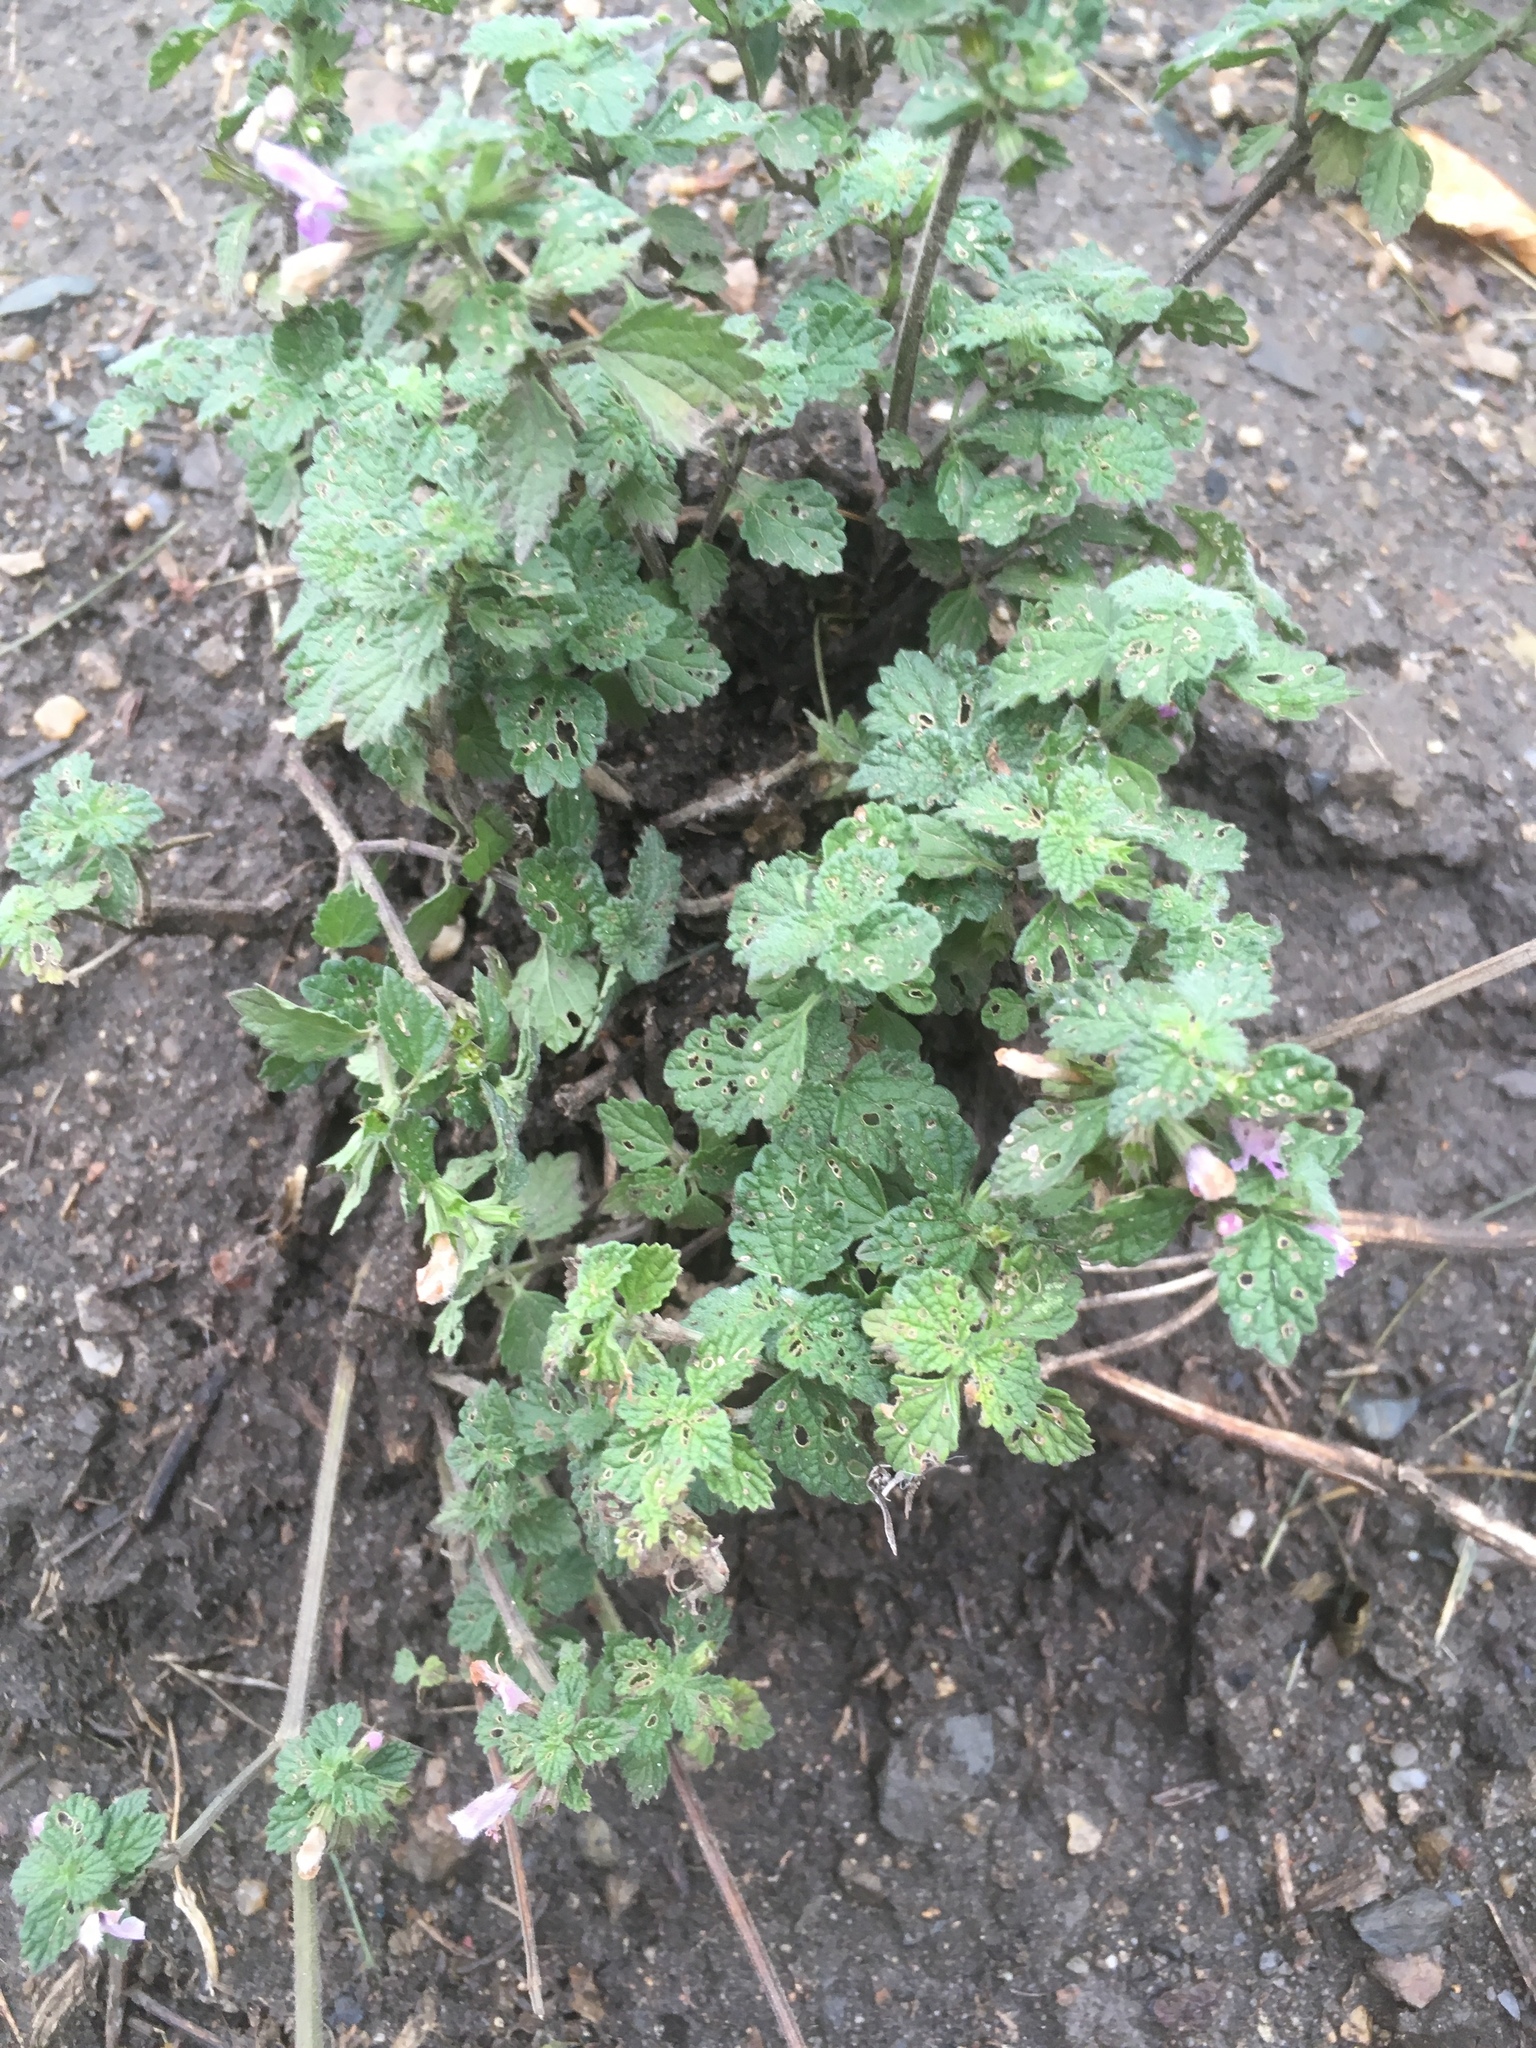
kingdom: Plantae
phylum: Tracheophyta
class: Magnoliopsida
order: Lamiales
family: Lamiaceae
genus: Ballota
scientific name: Ballota nigra
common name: Black horehound
